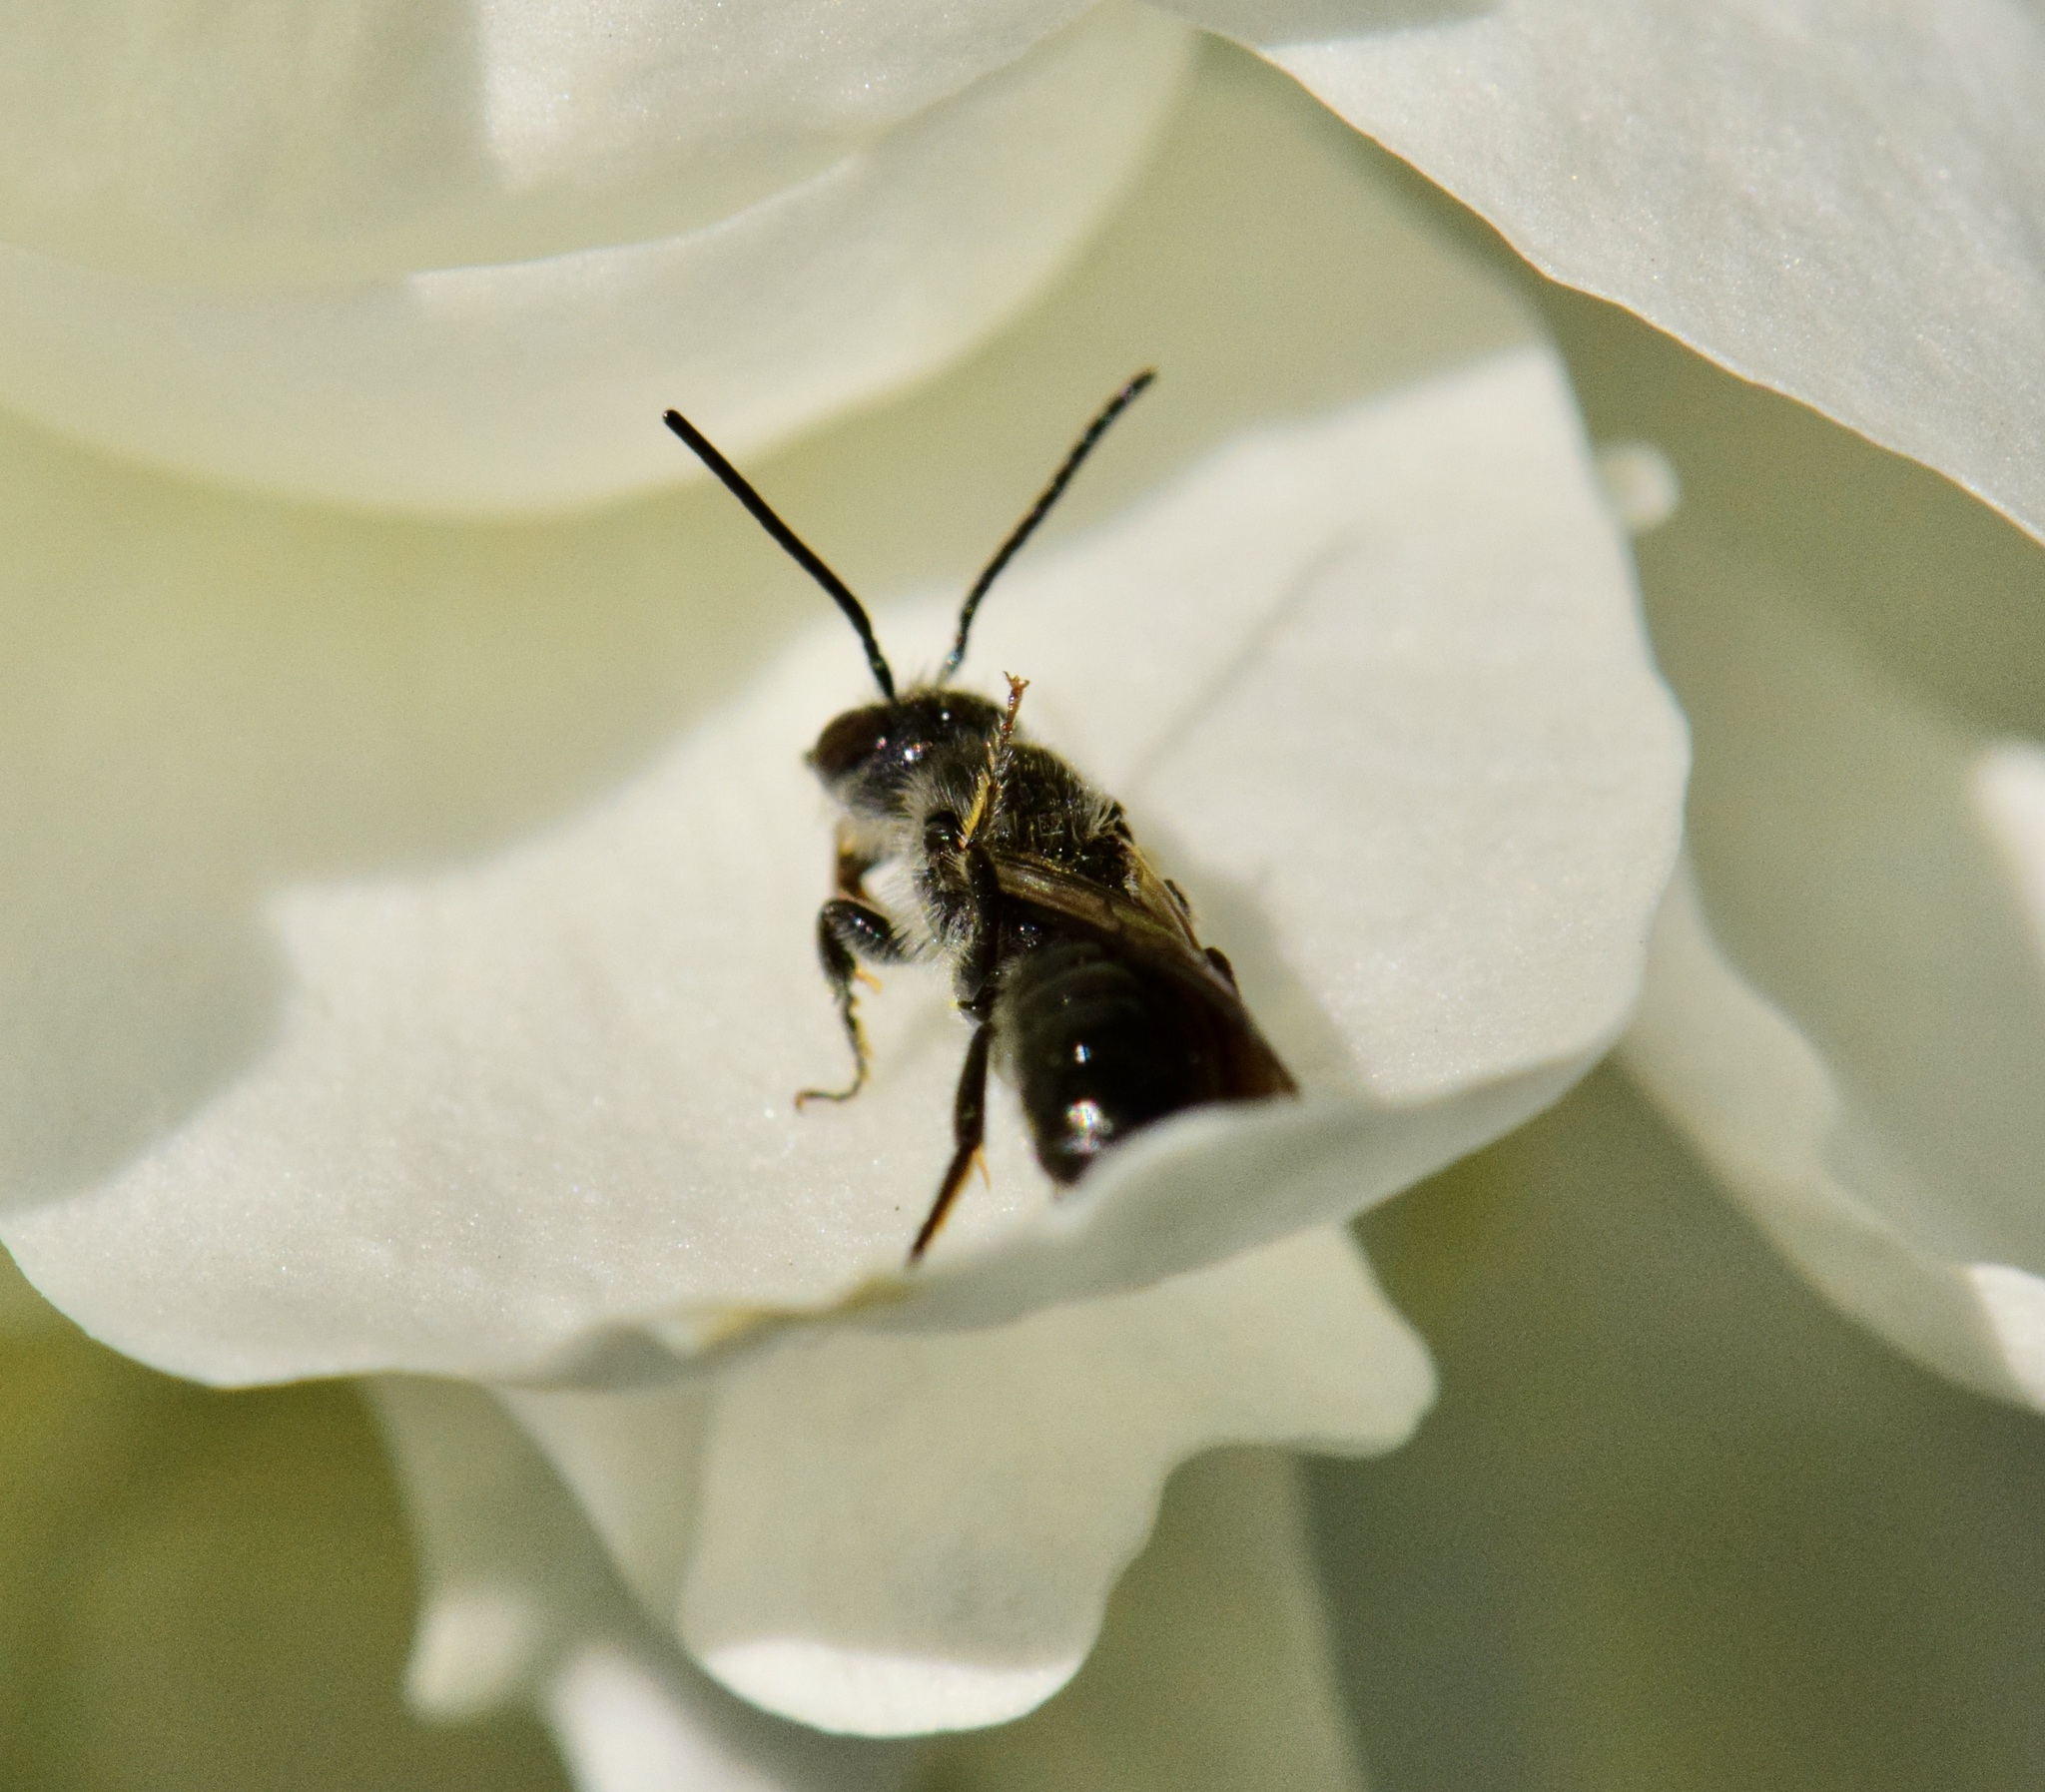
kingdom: Animalia
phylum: Arthropoda
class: Insecta
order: Hymenoptera
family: Megachilidae
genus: Chelostoma
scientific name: Chelostoma philadelphi
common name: Mock-orange scissor bee
